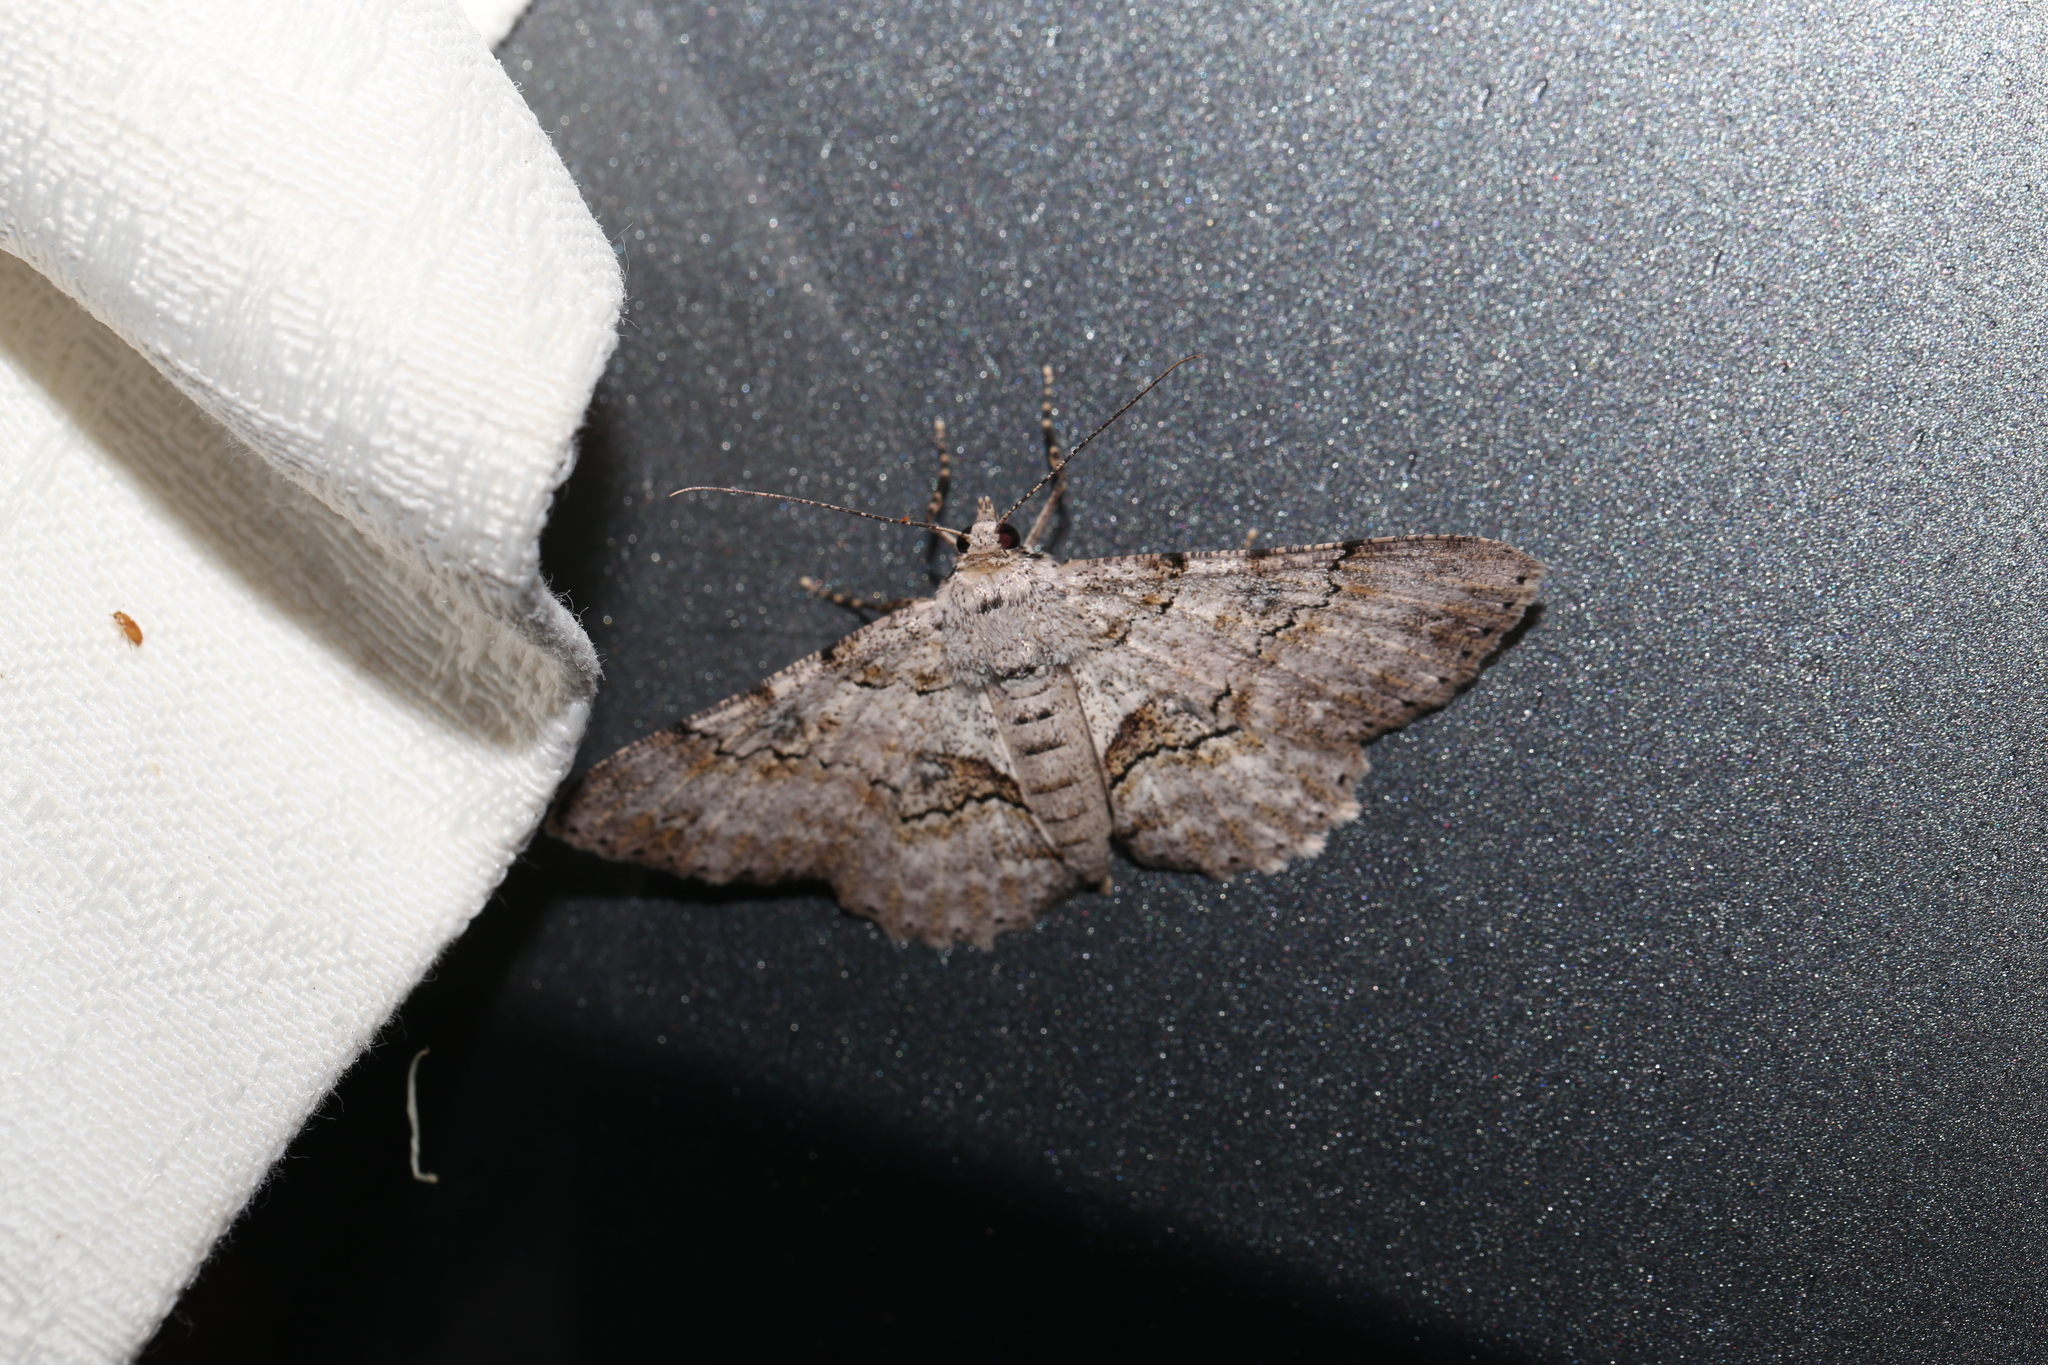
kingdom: Animalia
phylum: Arthropoda
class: Insecta
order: Lepidoptera
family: Geometridae
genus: Cleora
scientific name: Cleora repetita
